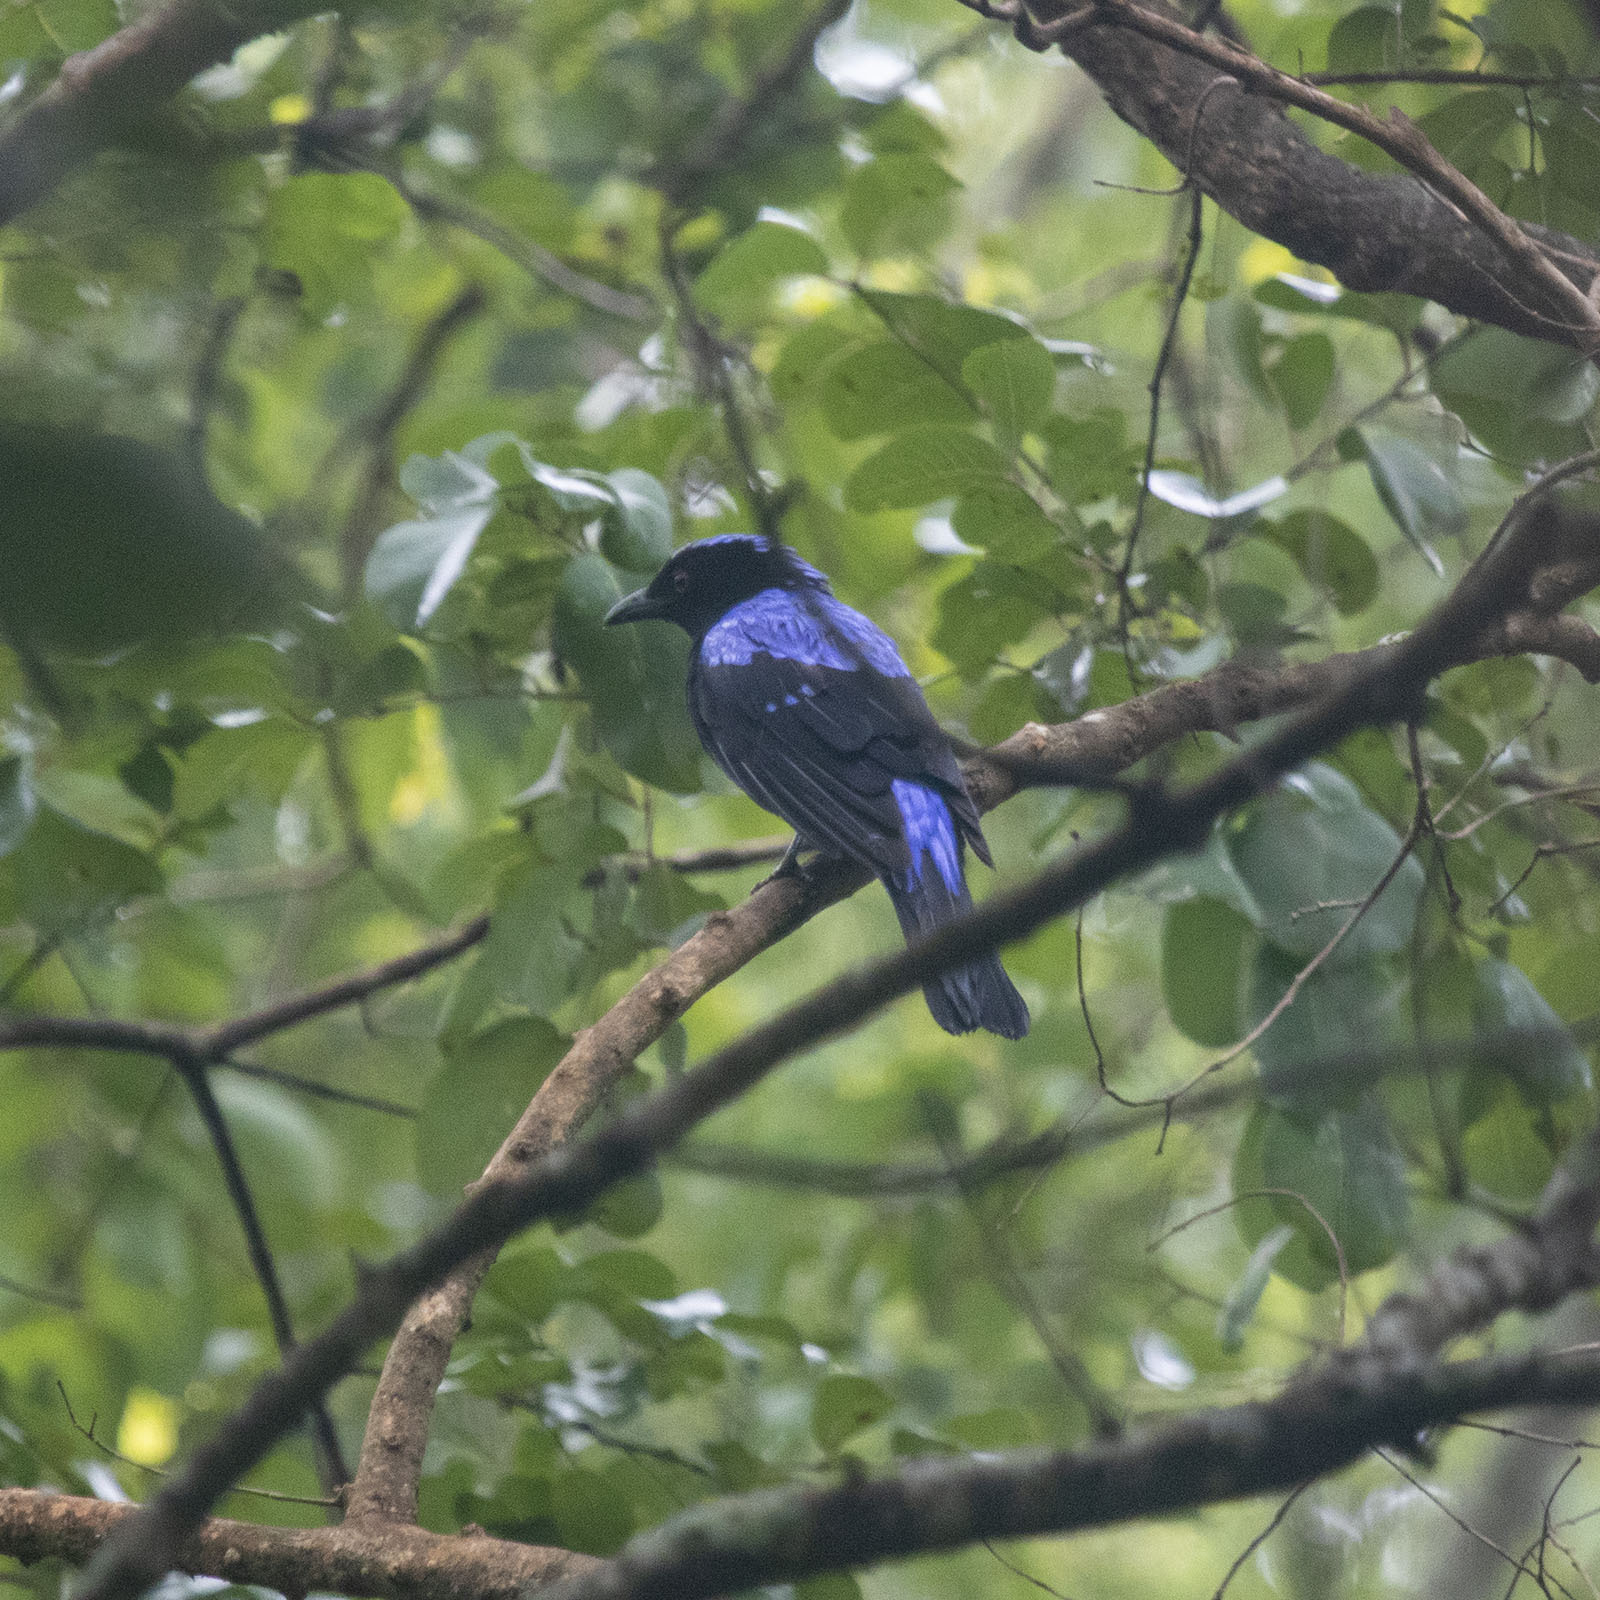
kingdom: Animalia
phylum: Chordata
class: Aves
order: Passeriformes
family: Irenidae
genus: Irena
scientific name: Irena puella
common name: Asian fairy-bluebird
